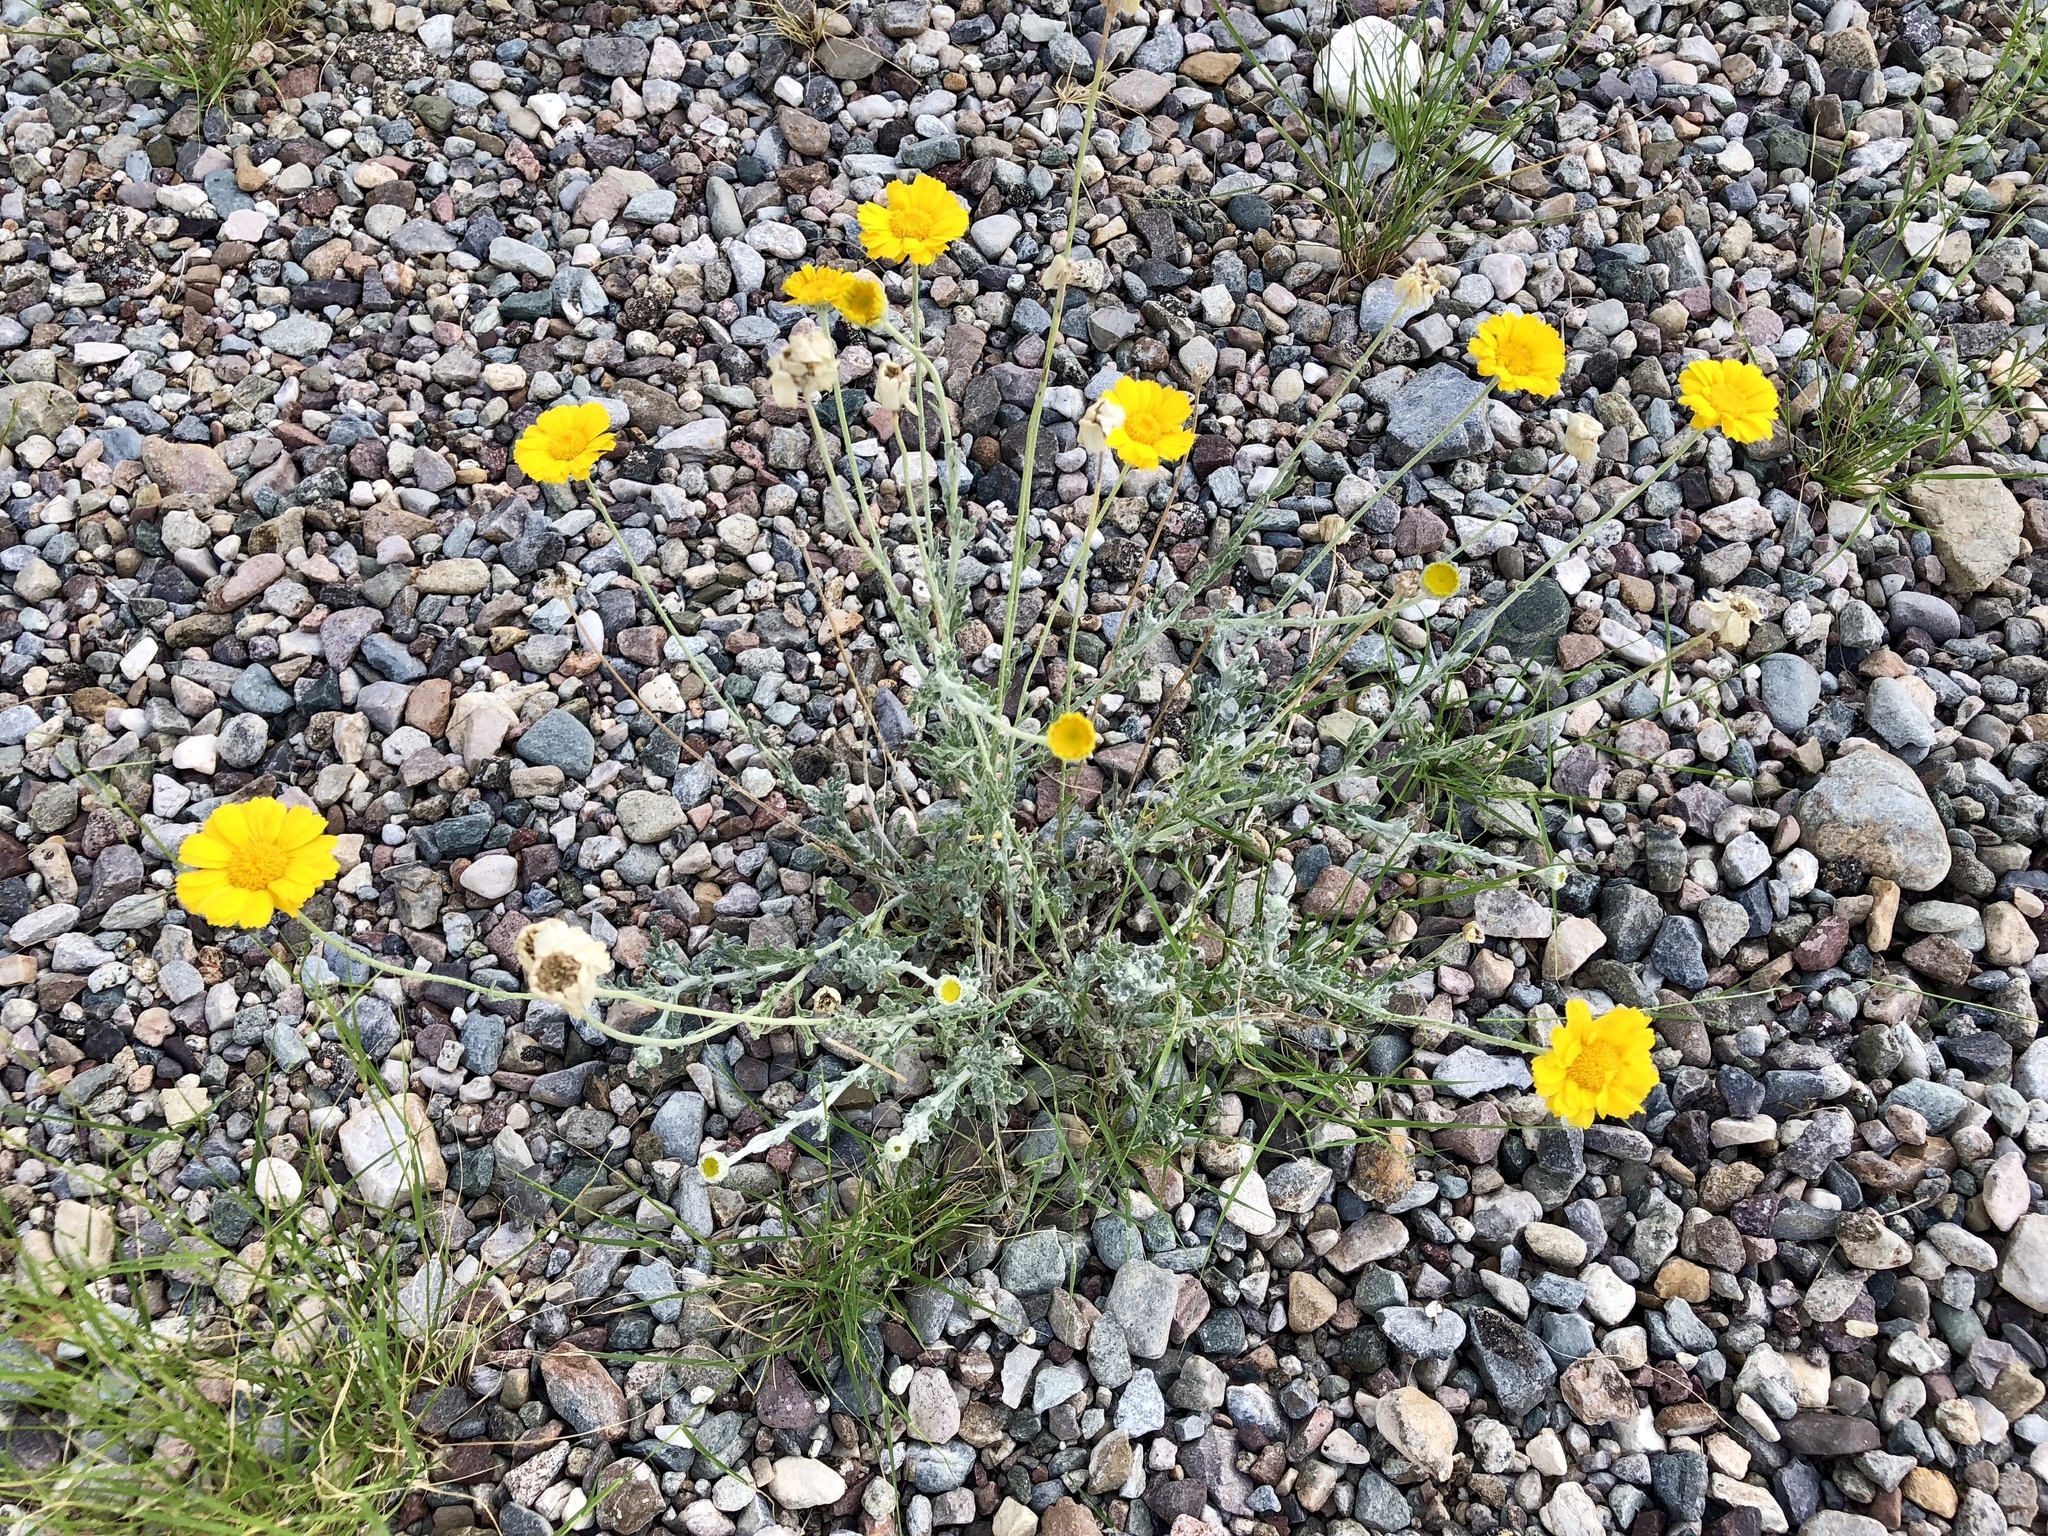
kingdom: Plantae
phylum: Tracheophyta
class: Magnoliopsida
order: Asterales
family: Asteraceae
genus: Baileya
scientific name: Baileya multiradiata
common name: Desert-marigold
